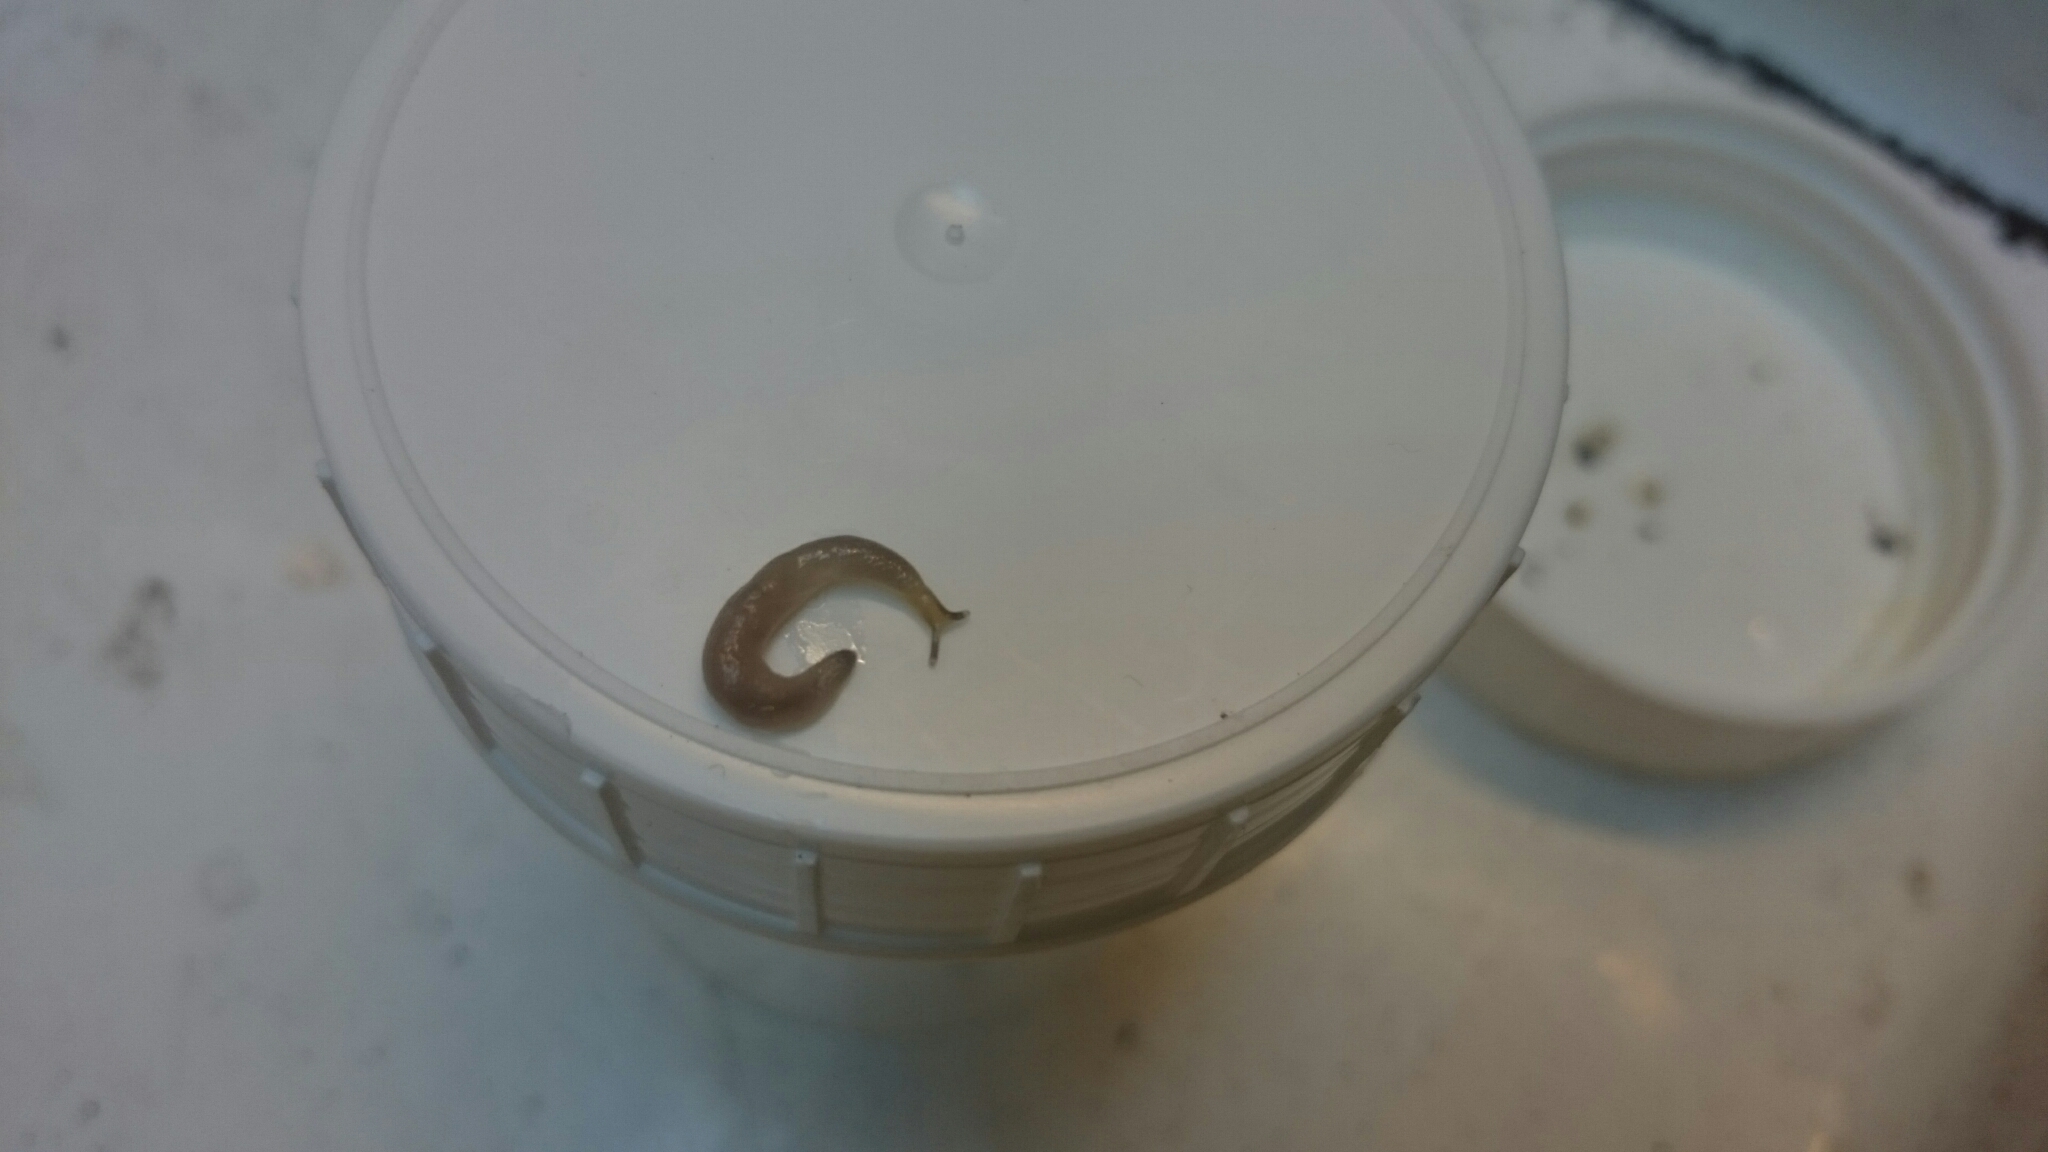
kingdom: Animalia
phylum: Mollusca
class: Gastropoda
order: Stylommatophora
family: Boettgerillidae
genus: Boettgerilla
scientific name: Boettgerilla pallens
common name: Worm slug
